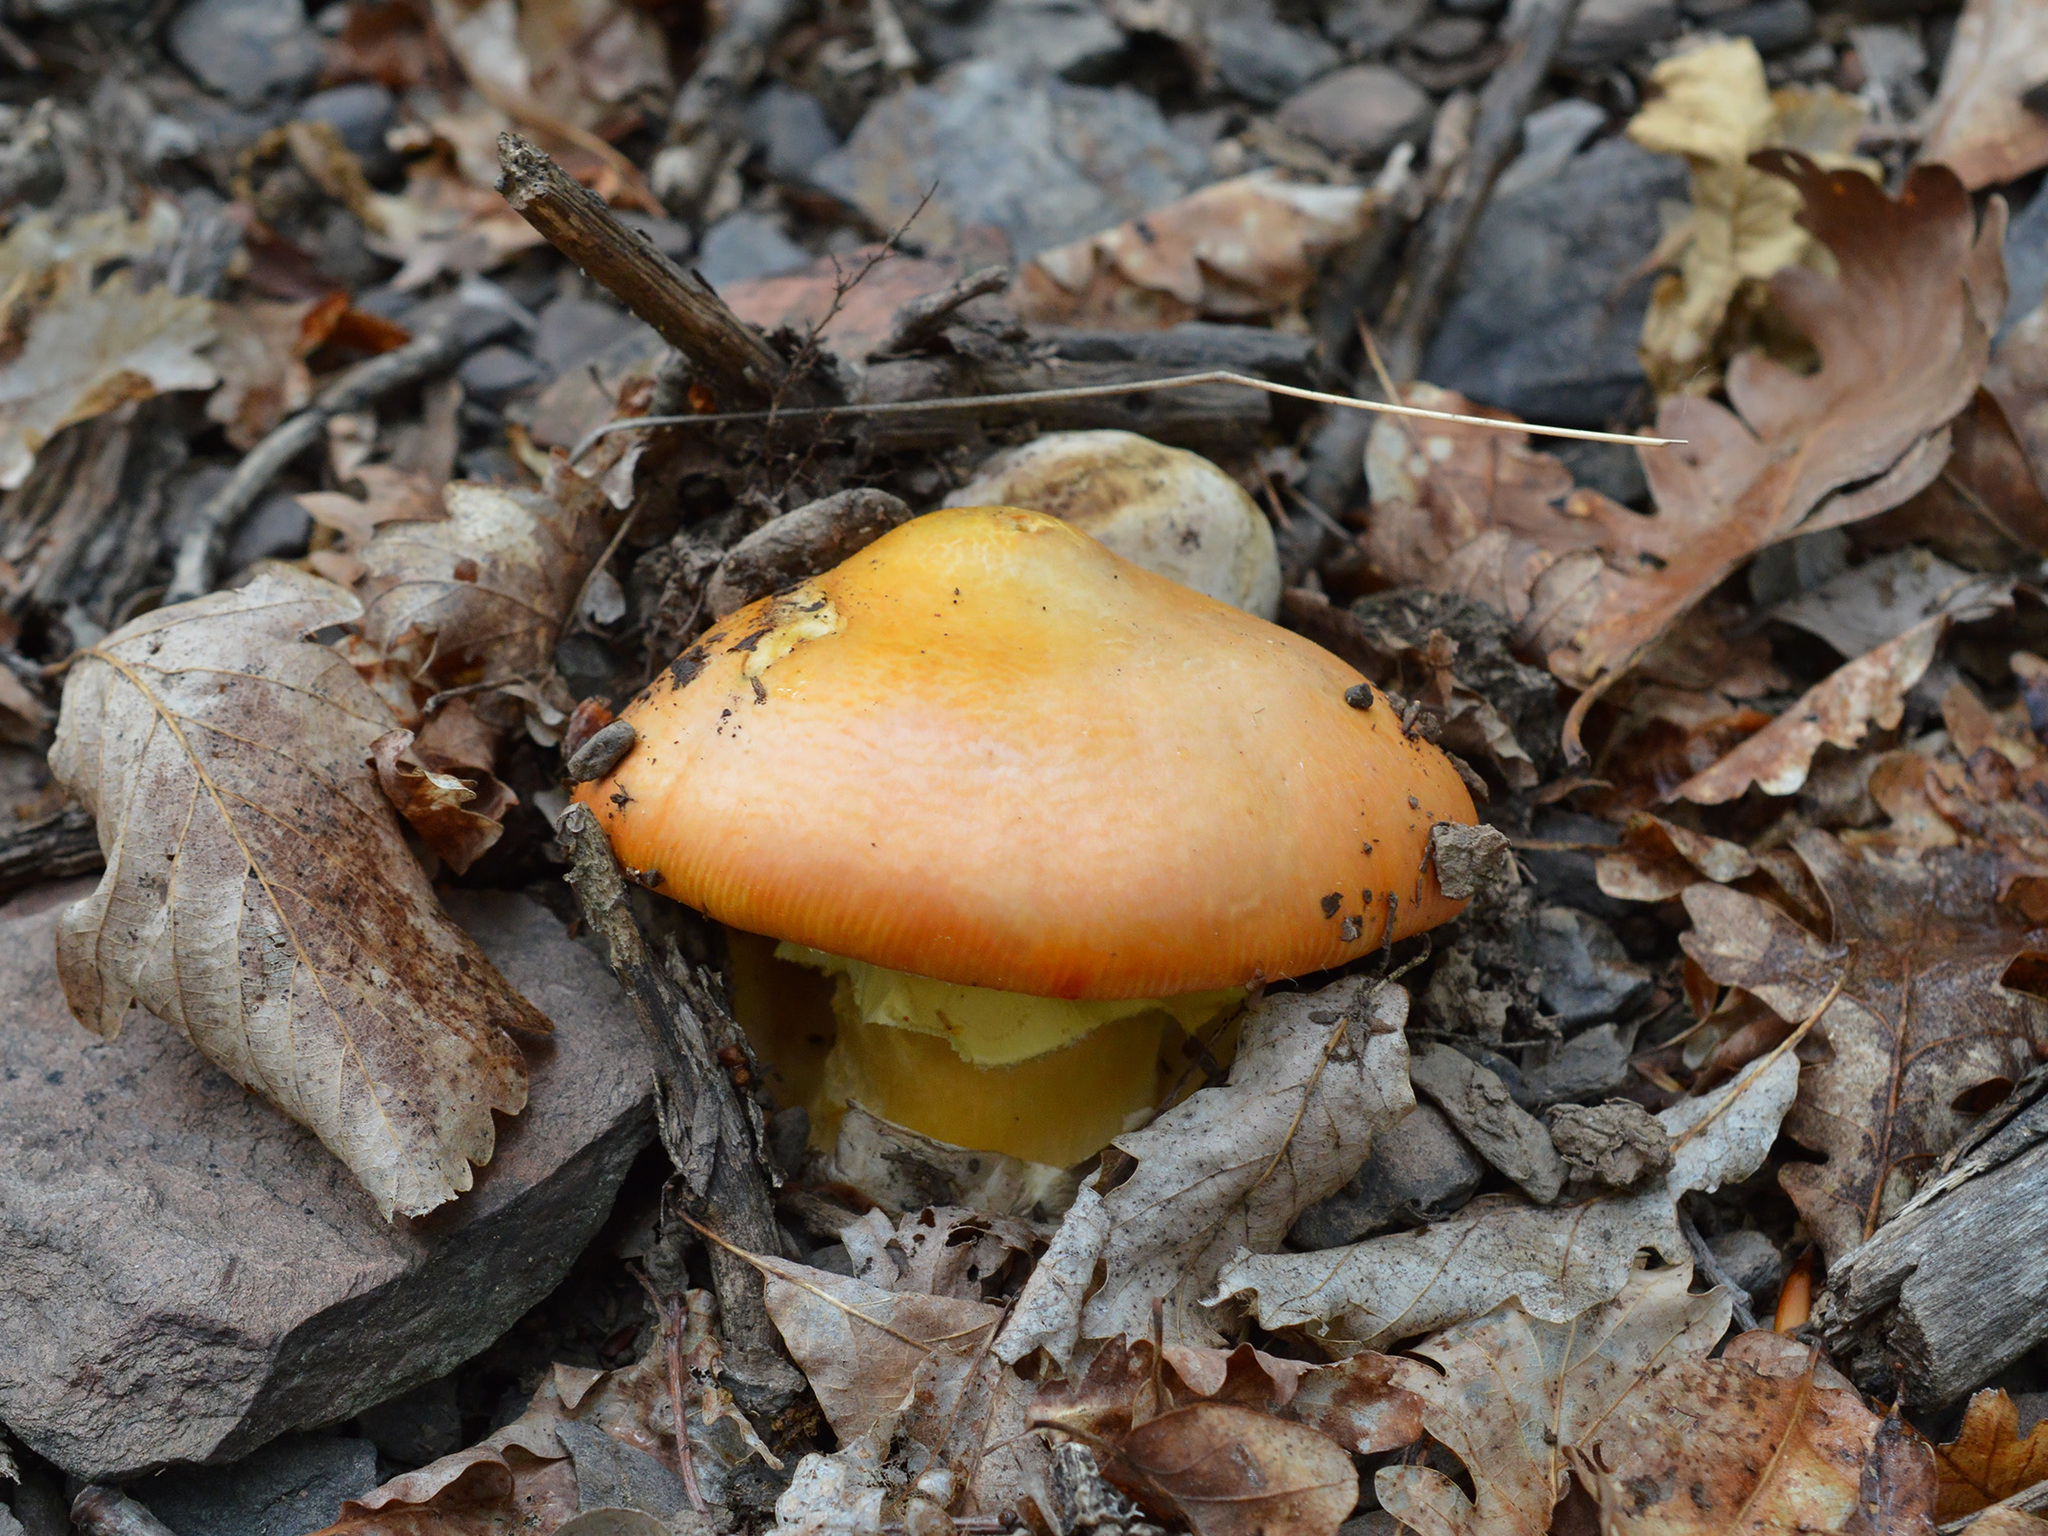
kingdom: Fungi
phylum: Basidiomycota
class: Agaricomycetes
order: Agaricales
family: Amanitaceae
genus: Amanita
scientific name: Amanita caesarea
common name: Caesar's amanita
